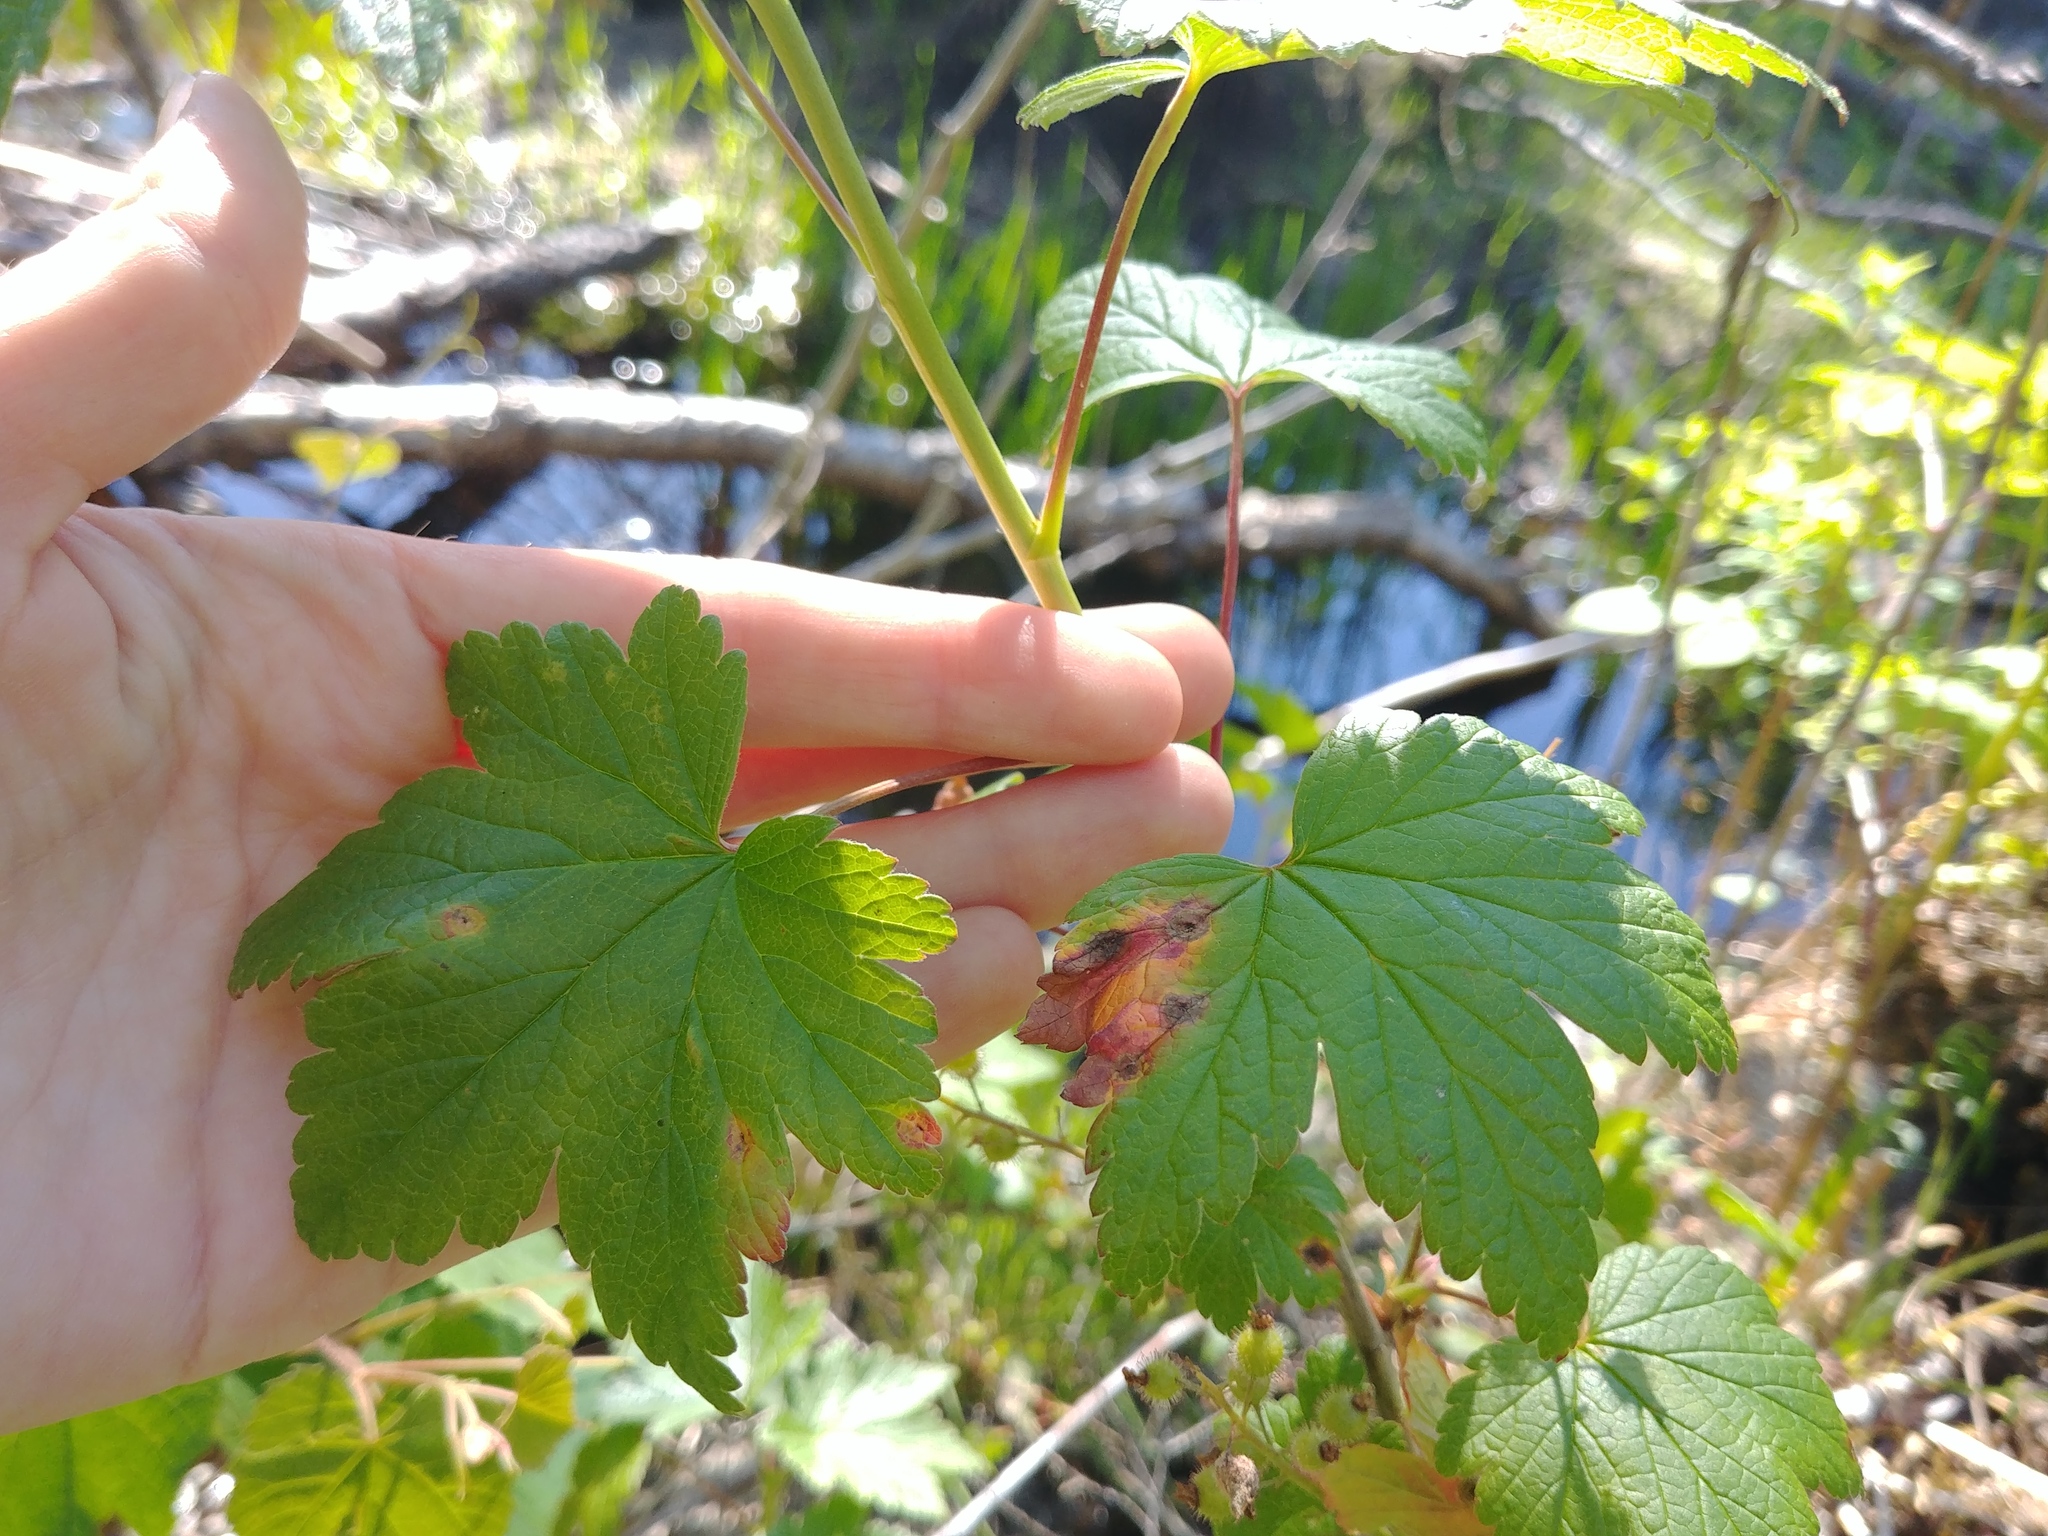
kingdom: Plantae
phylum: Tracheophyta
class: Magnoliopsida
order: Saxifragales
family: Grossulariaceae
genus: Ribes
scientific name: Ribes glandulosum
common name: Skunk currant
